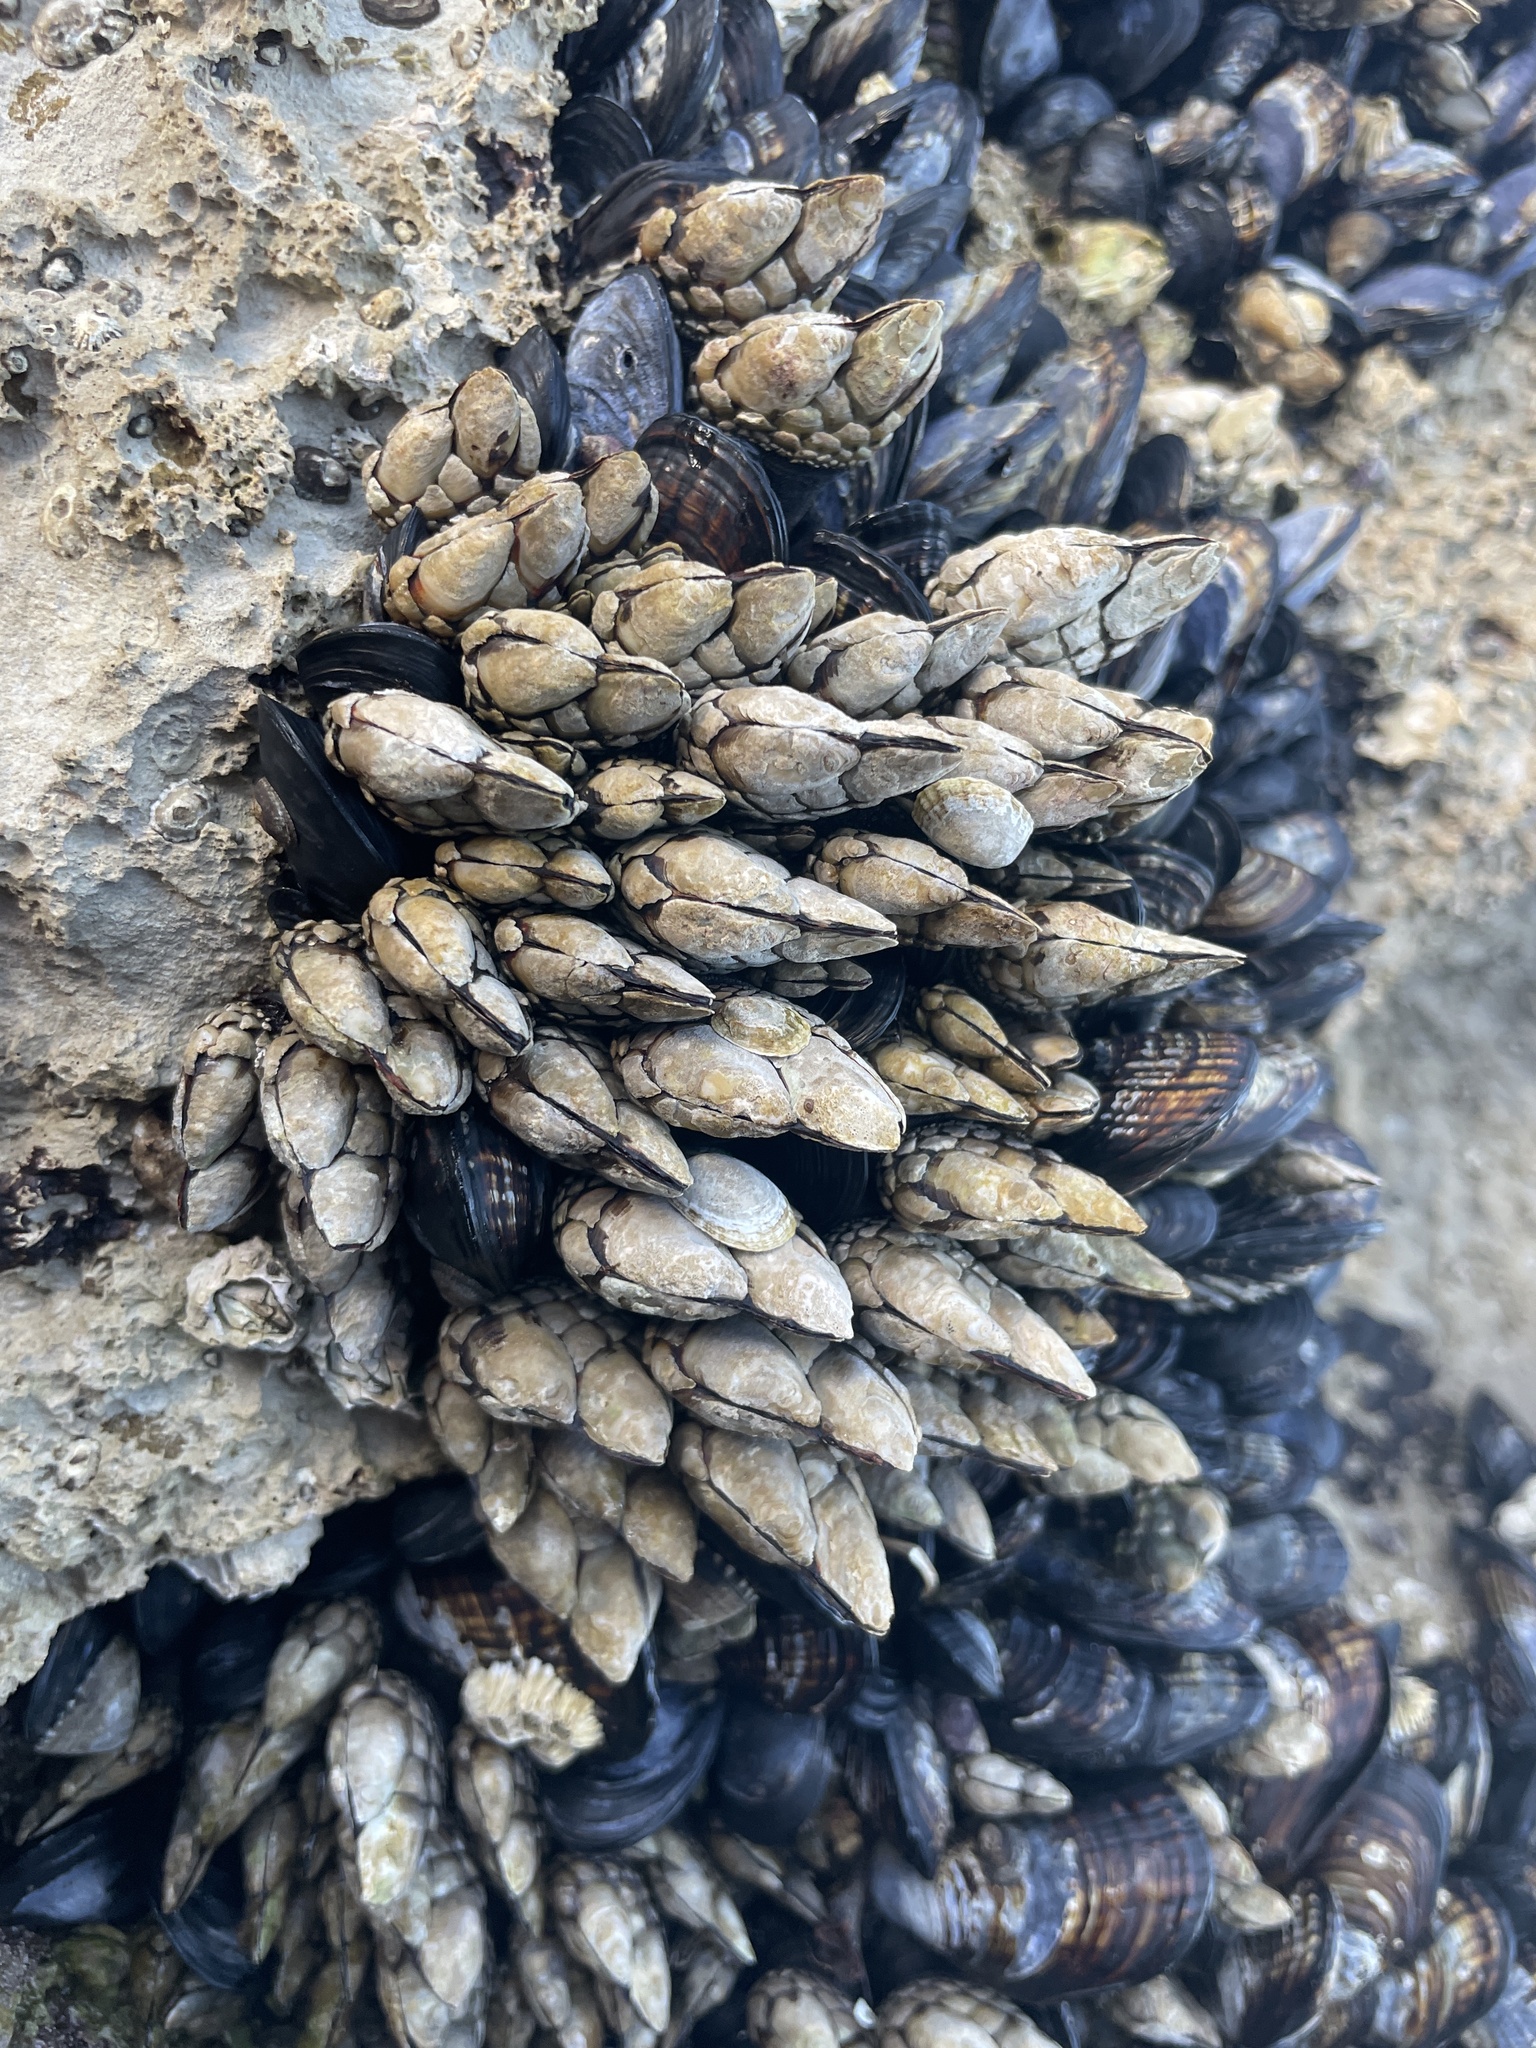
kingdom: Animalia
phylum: Arthropoda
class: Maxillopoda
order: Pedunculata
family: Pollicipedidae
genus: Pollicipes
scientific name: Pollicipes polymerus
